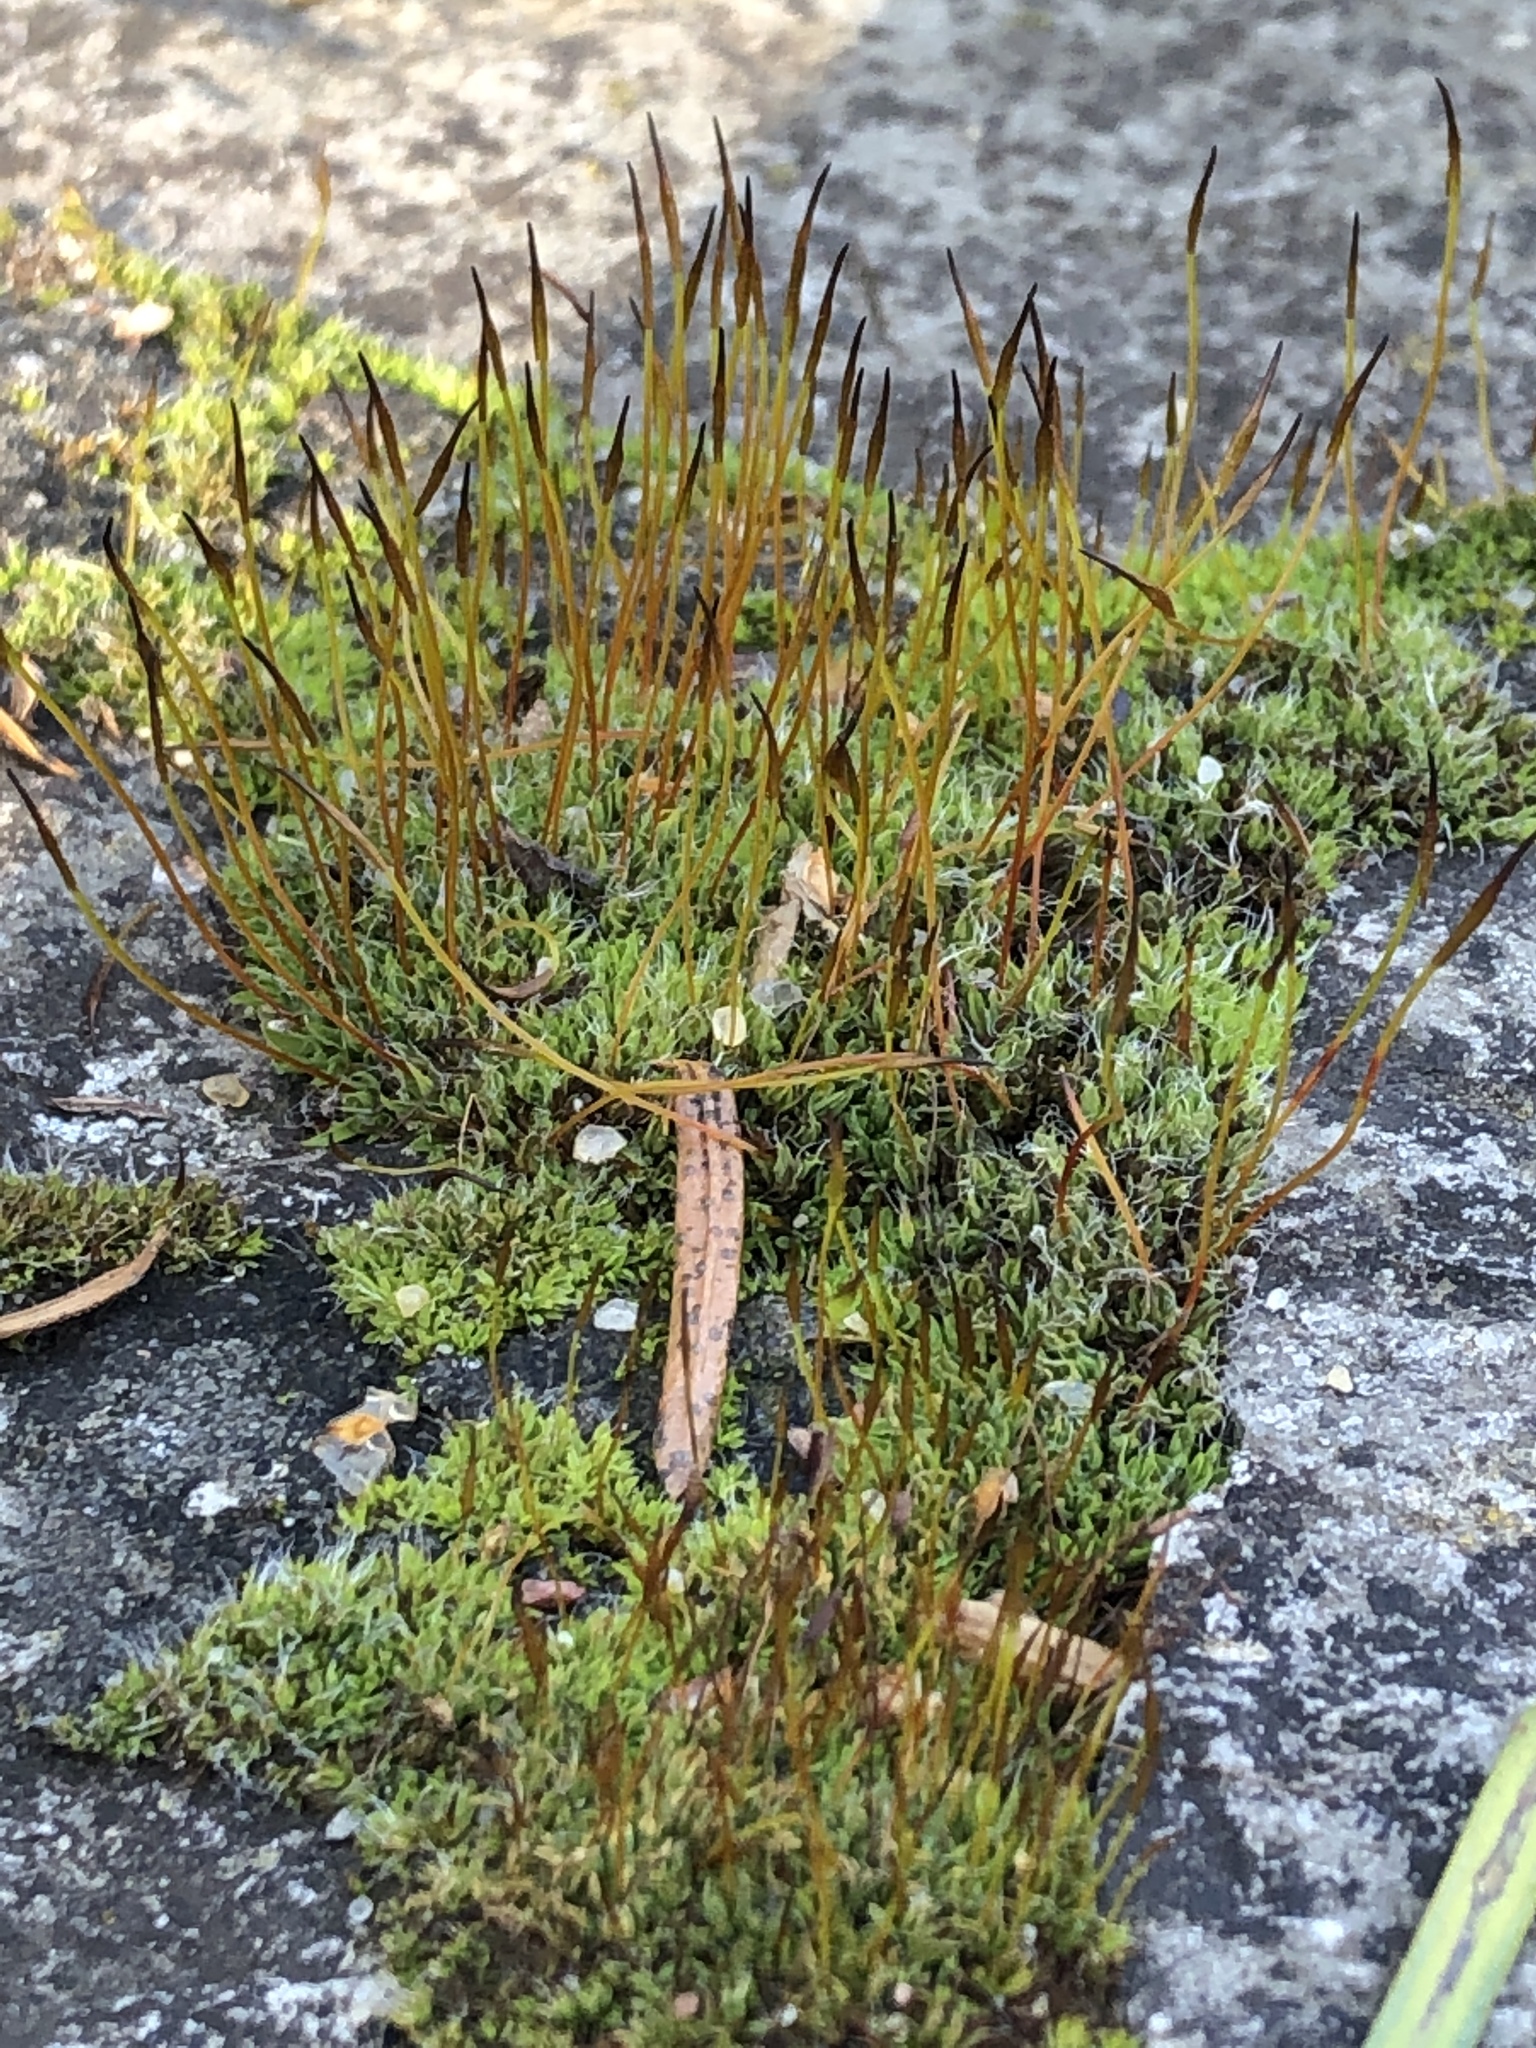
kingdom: Plantae
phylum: Bryophyta
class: Bryopsida
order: Pottiales
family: Pottiaceae
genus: Tortula
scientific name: Tortula muralis
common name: Wall screw-moss
